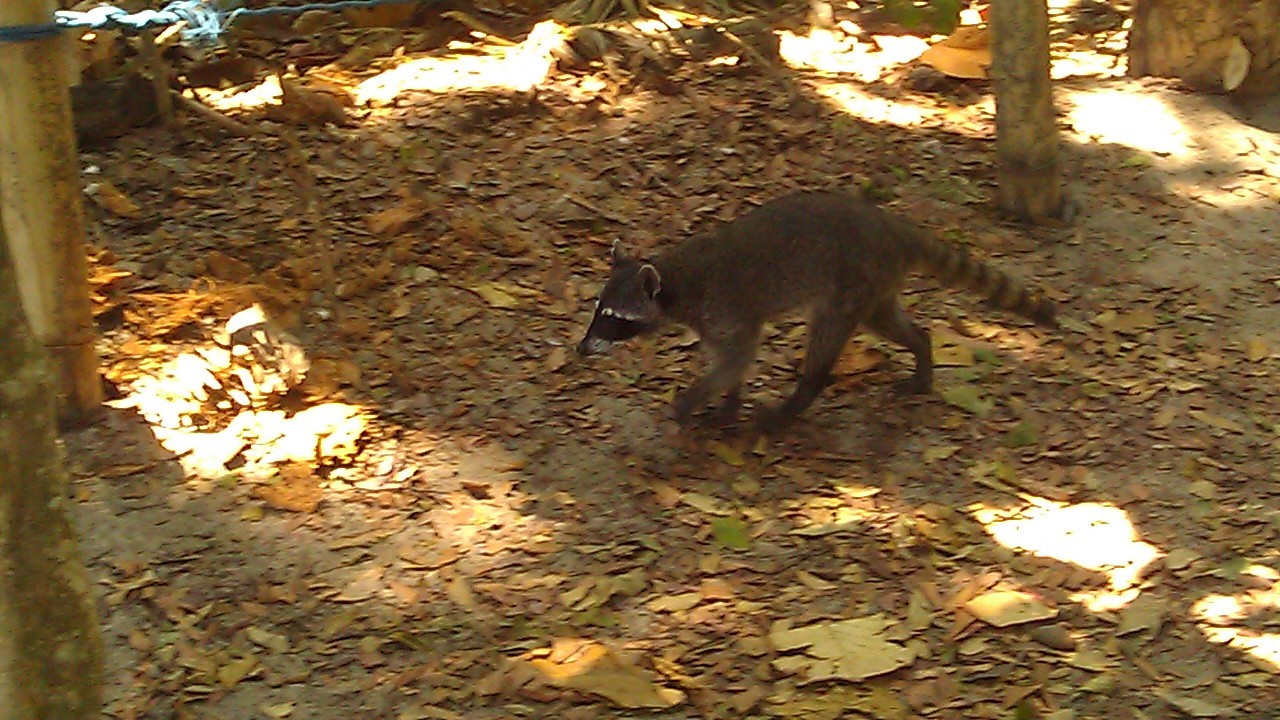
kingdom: Animalia
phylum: Chordata
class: Mammalia
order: Carnivora
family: Procyonidae
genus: Procyon
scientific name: Procyon lotor
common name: Raccoon
